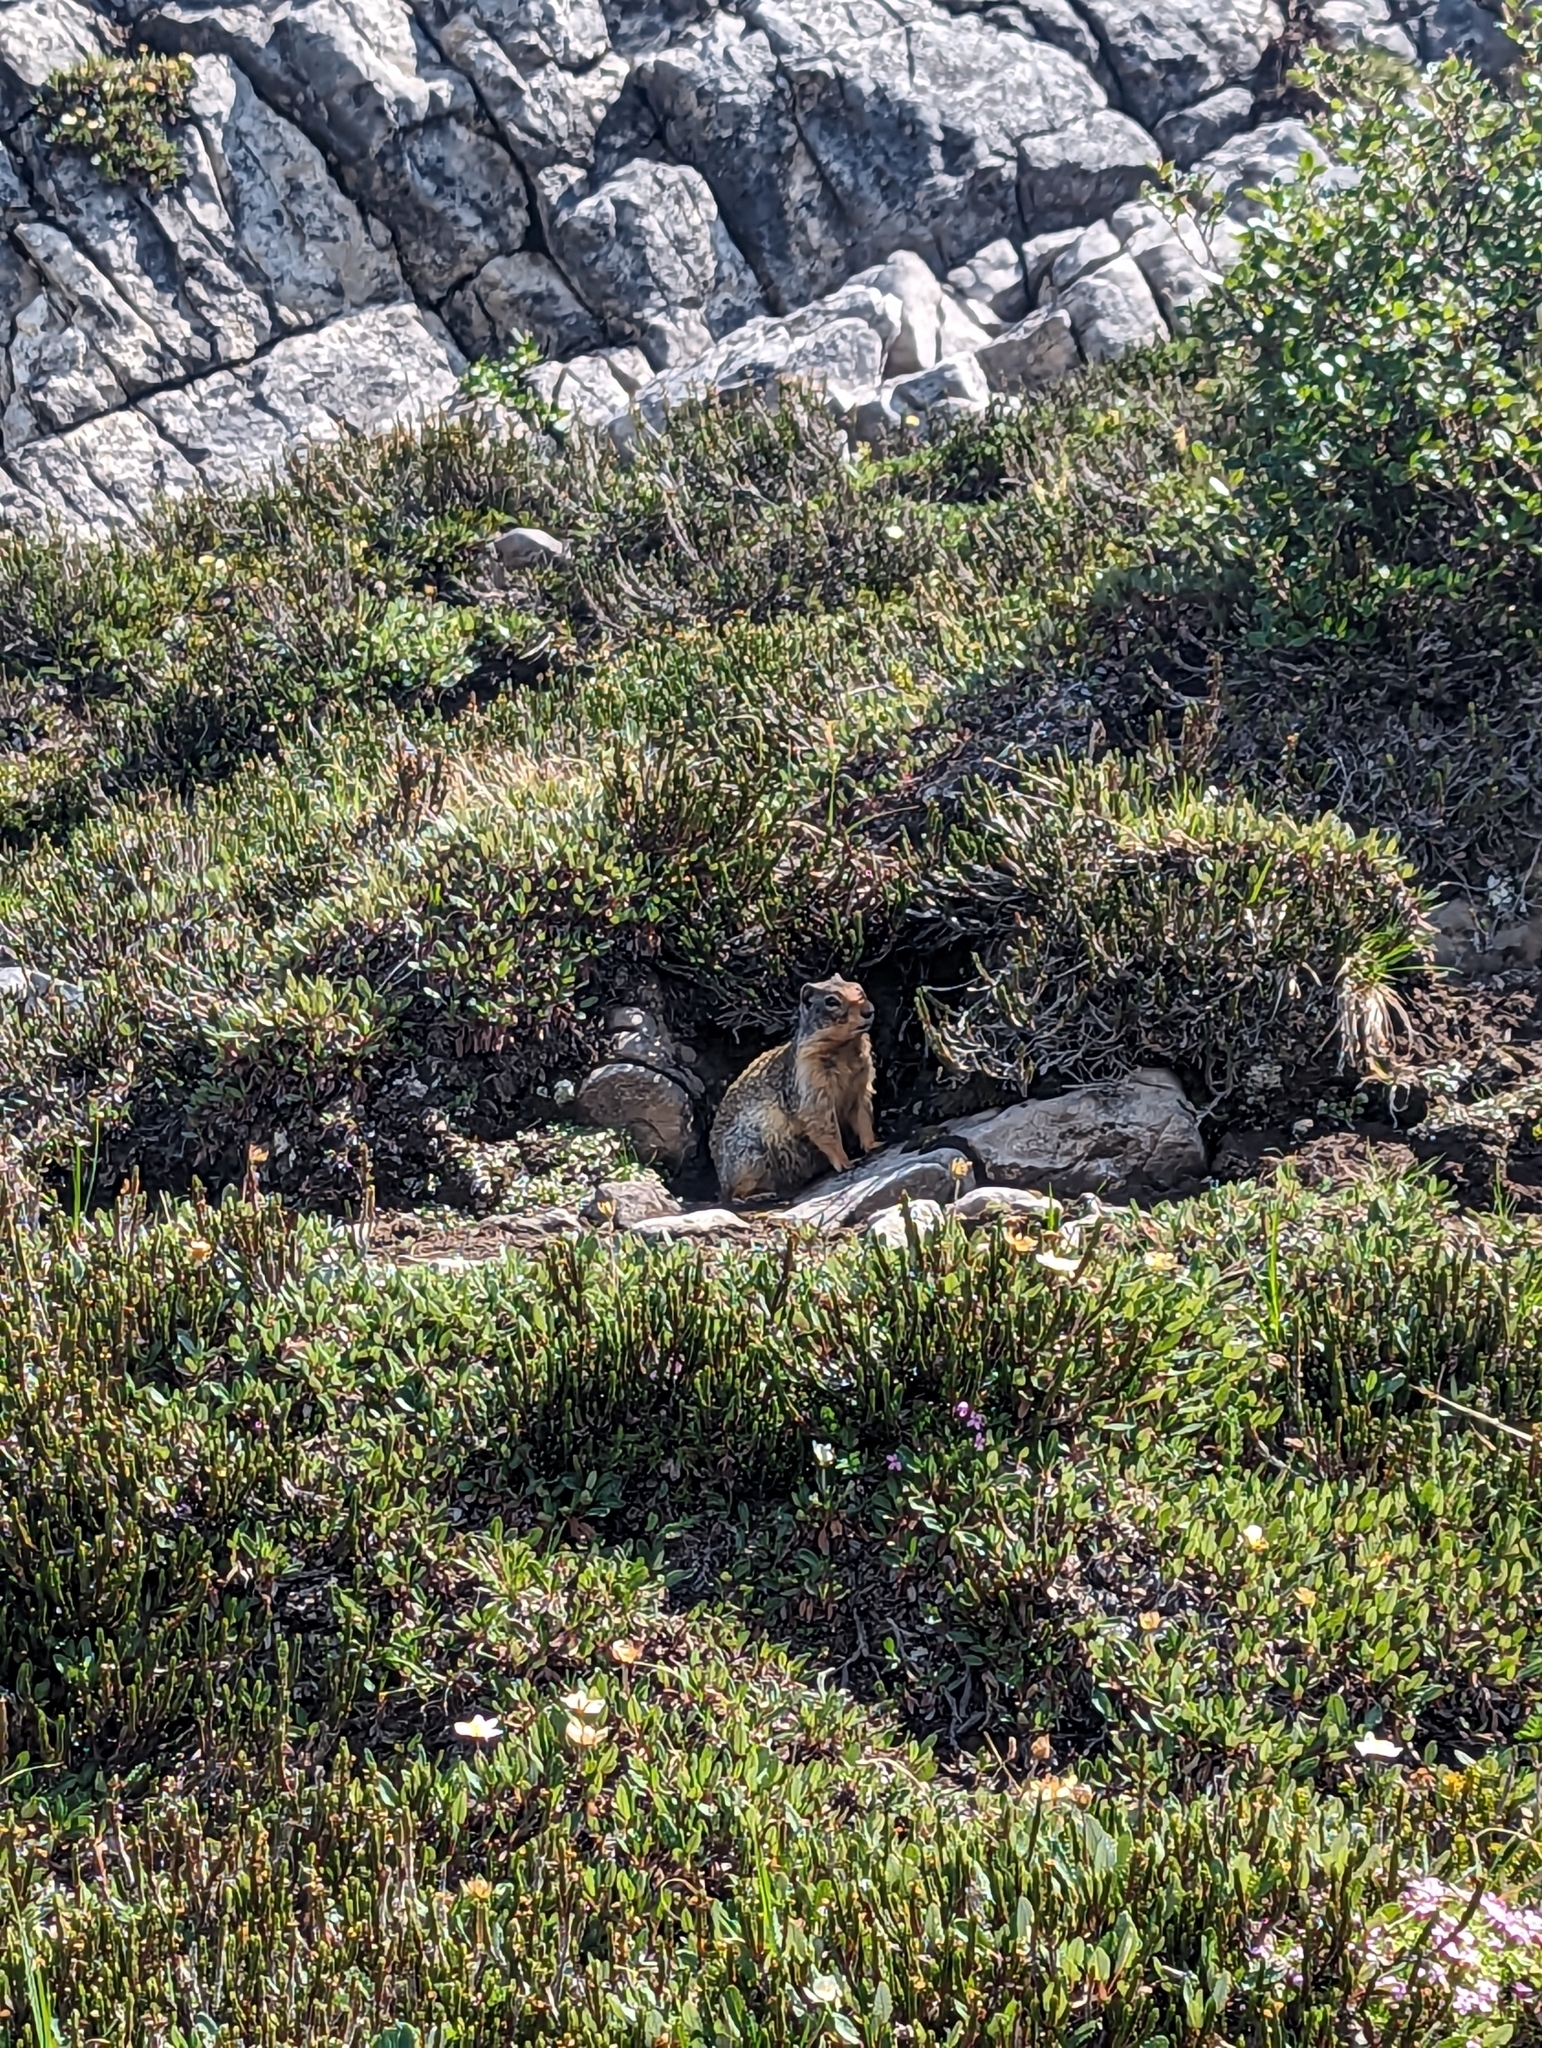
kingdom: Animalia
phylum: Chordata
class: Mammalia
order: Rodentia
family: Sciuridae
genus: Urocitellus
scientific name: Urocitellus columbianus
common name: Columbian ground squirrel
